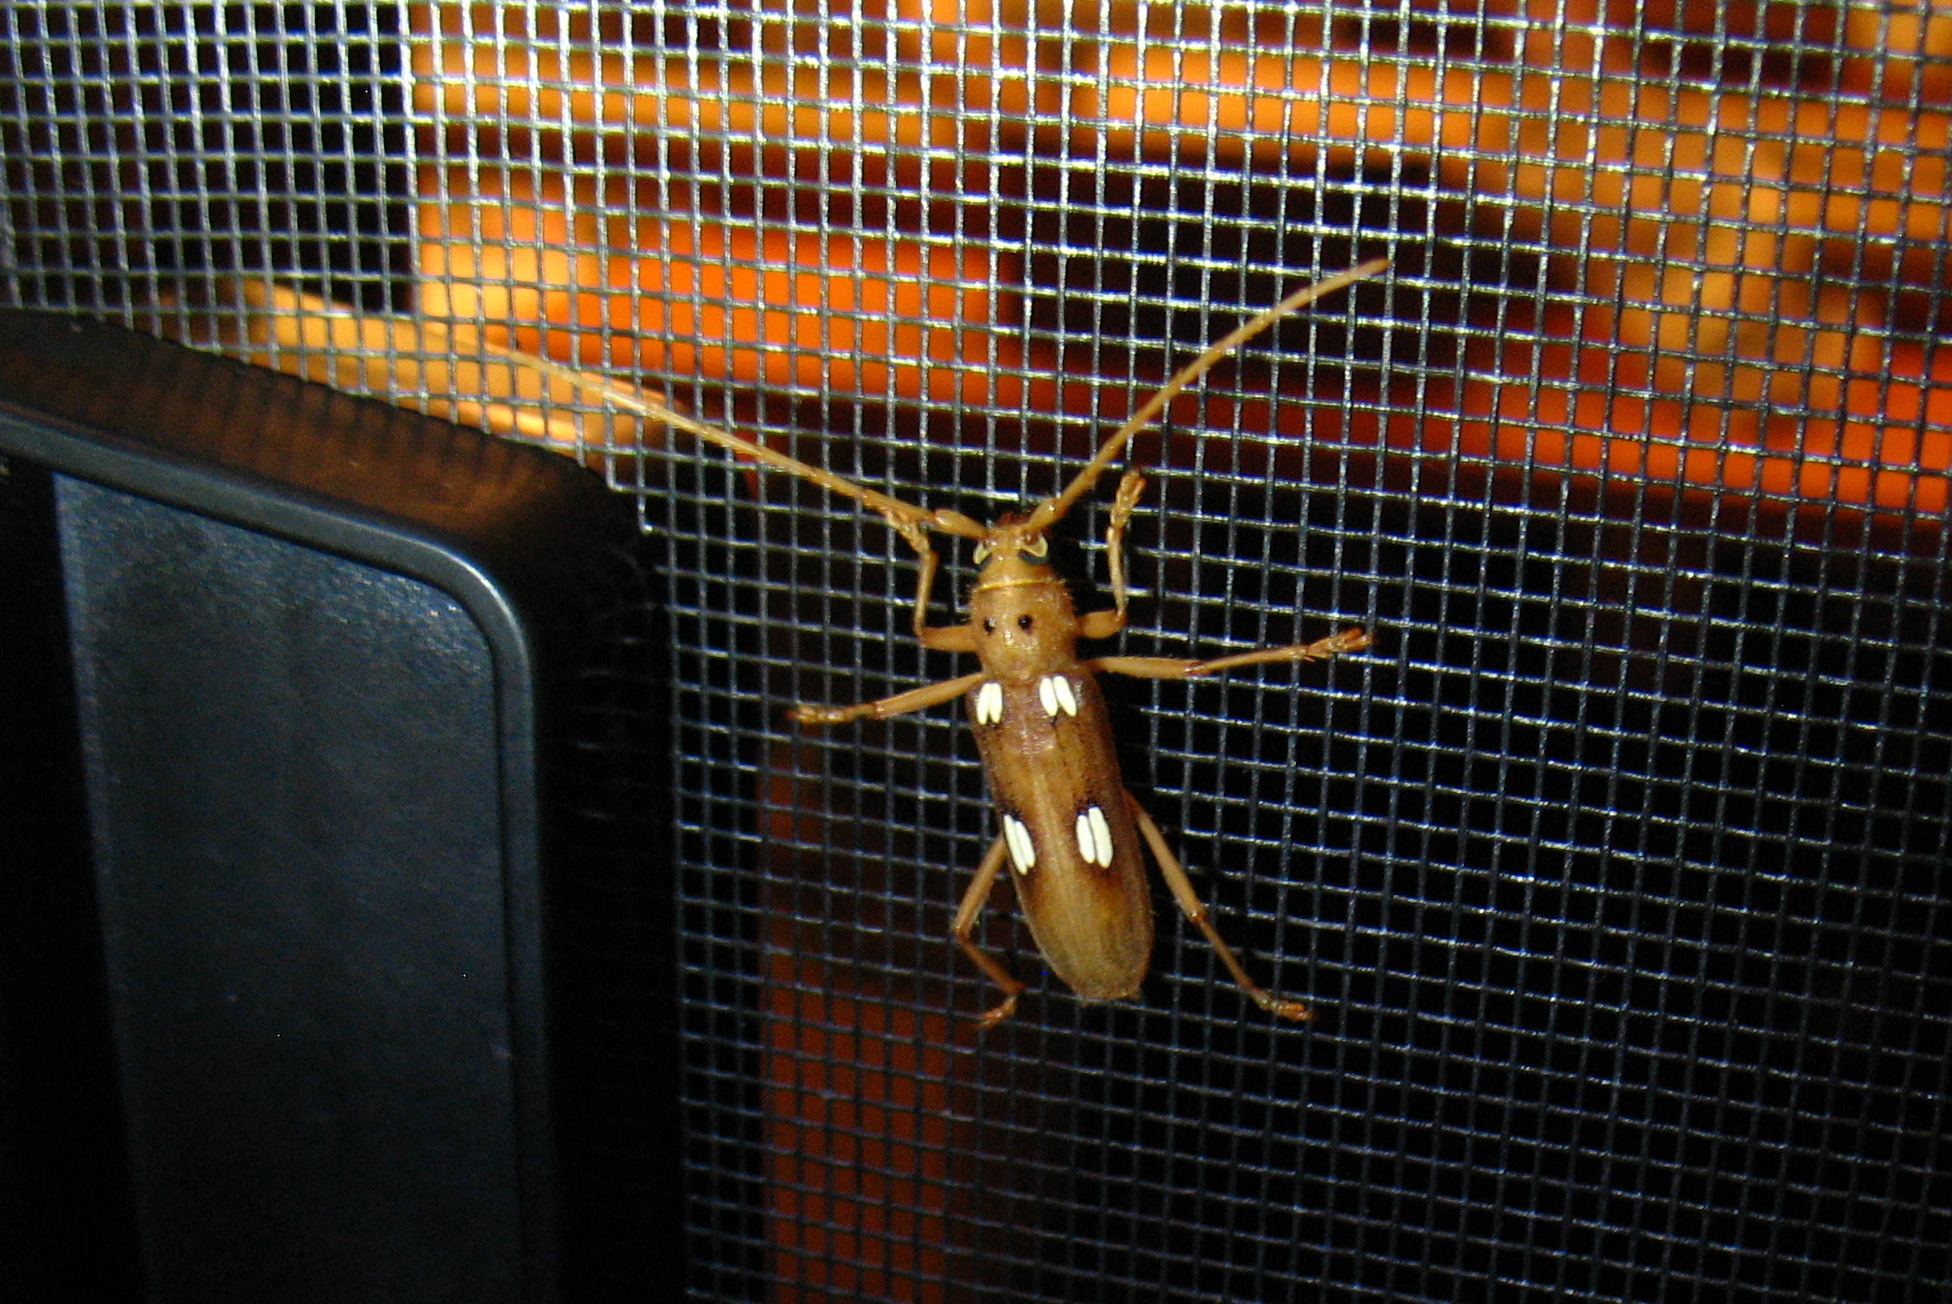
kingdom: Animalia
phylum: Arthropoda
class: Insecta
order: Coleoptera
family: Cerambycidae
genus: Eburia
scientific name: Eburia quadrigeminata
